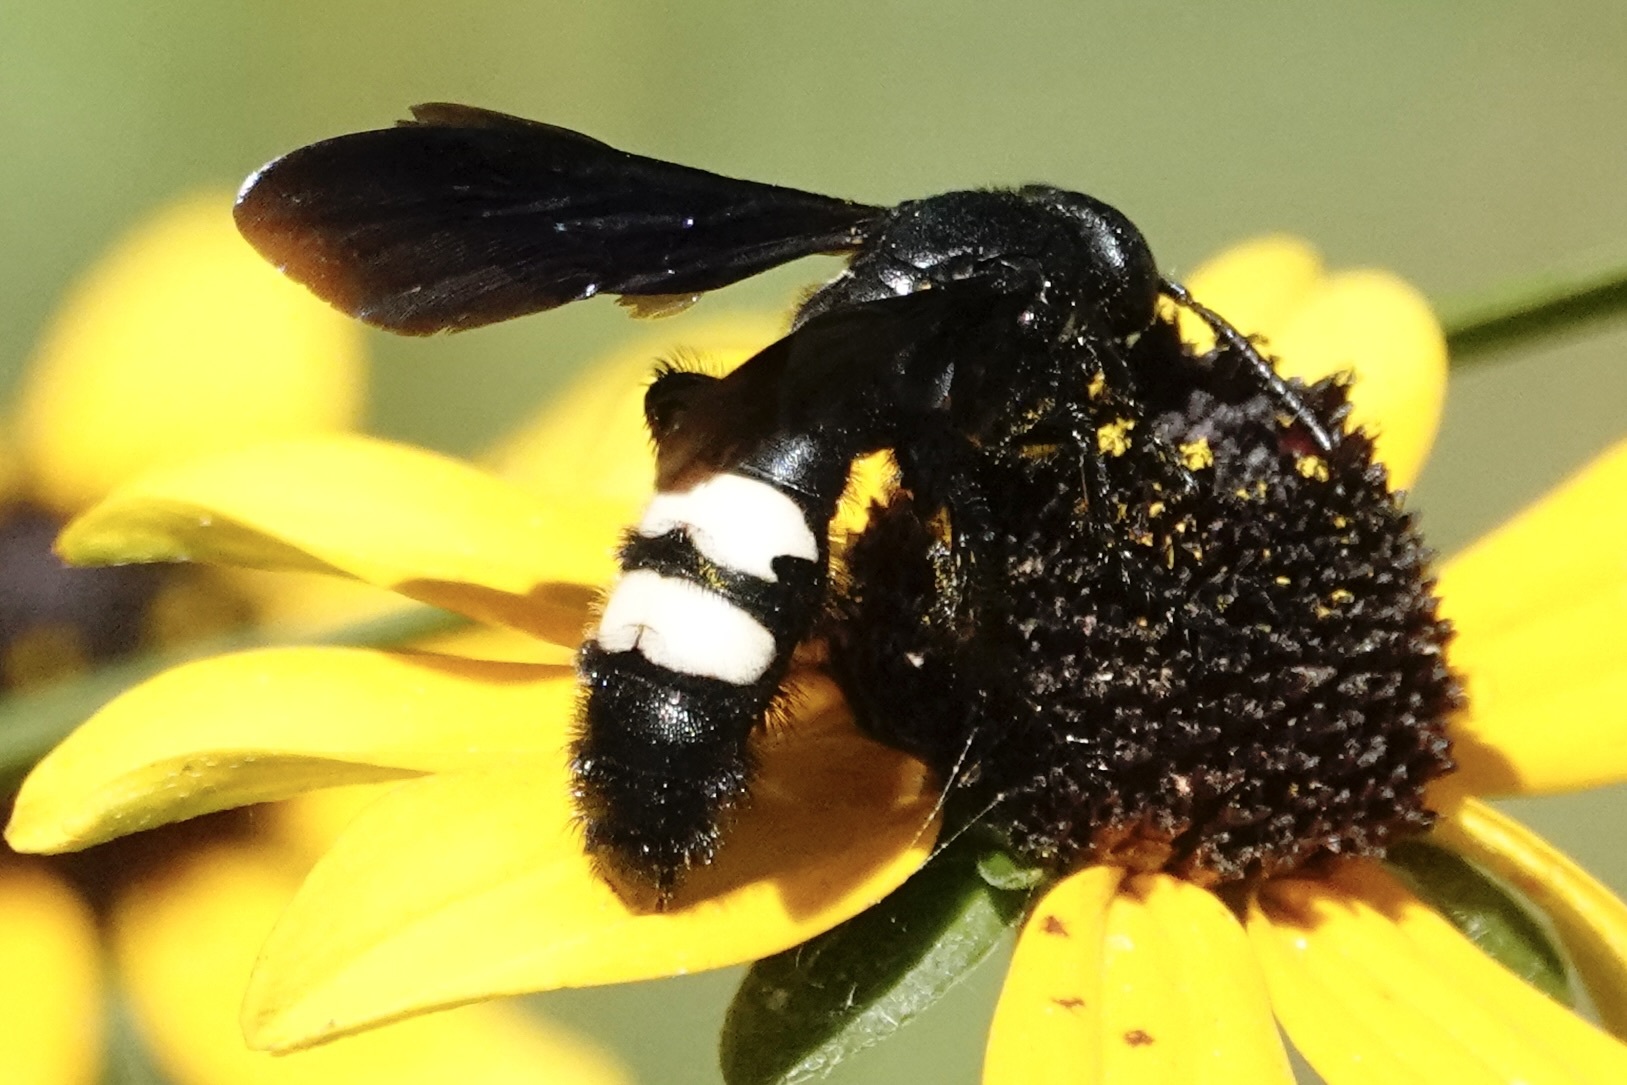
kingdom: Animalia
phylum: Arthropoda
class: Insecta
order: Hymenoptera
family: Scoliidae
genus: Scolia
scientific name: Scolia bicincta
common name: Double-banded scoliid wasp
